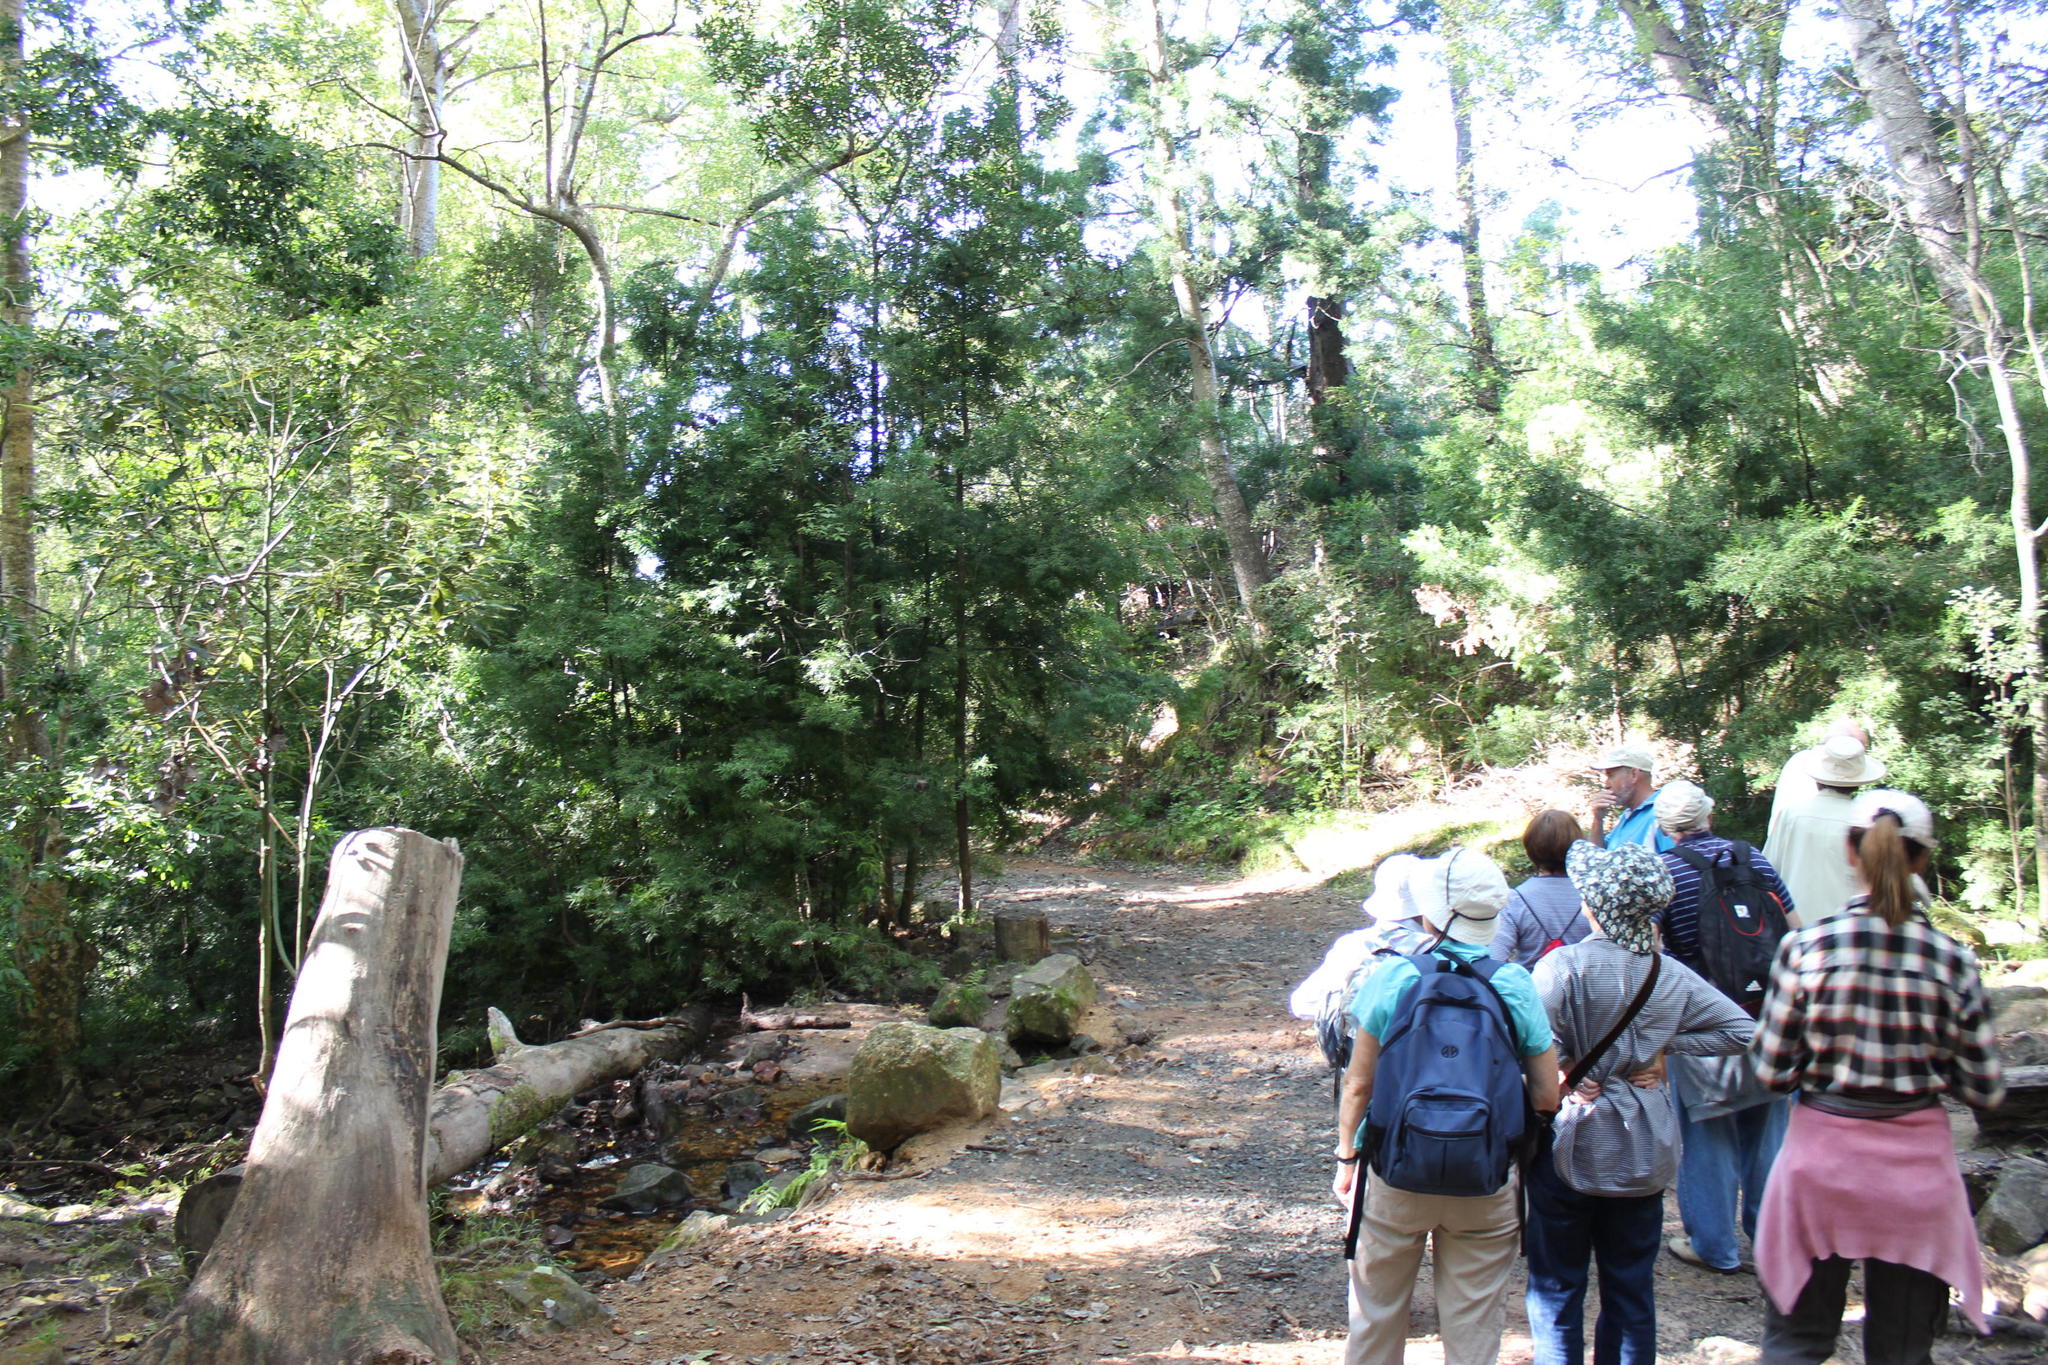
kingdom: Plantae
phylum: Tracheophyta
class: Pinopsida
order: Pinales
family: Podocarpaceae
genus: Afrocarpus
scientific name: Afrocarpus falcatus
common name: Bastard yellowwood
